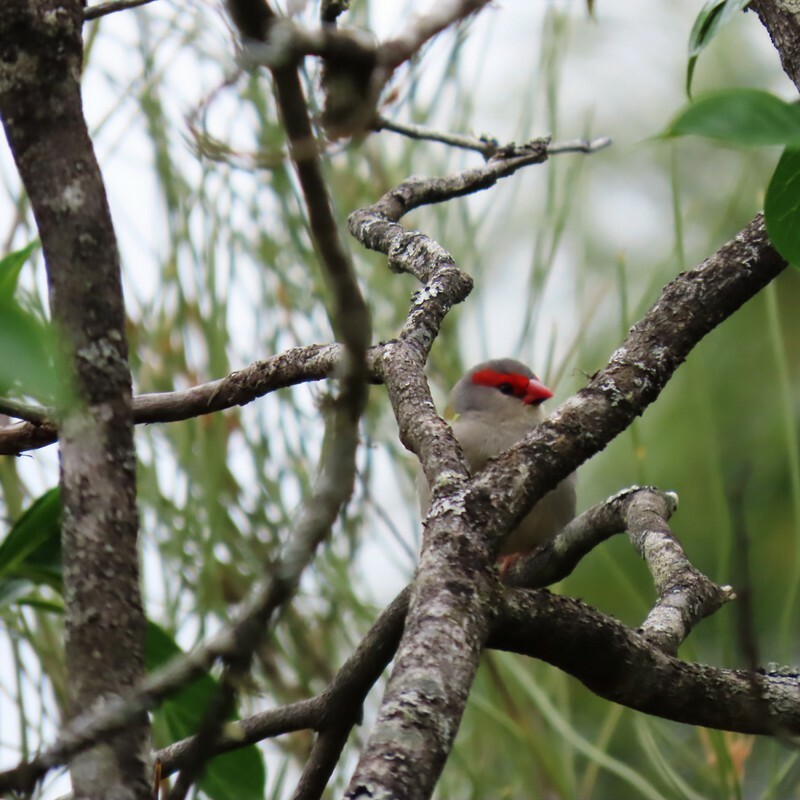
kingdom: Animalia
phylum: Chordata
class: Aves
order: Passeriformes
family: Estrildidae
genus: Neochmia
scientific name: Neochmia temporalis
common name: Red-browed finch
